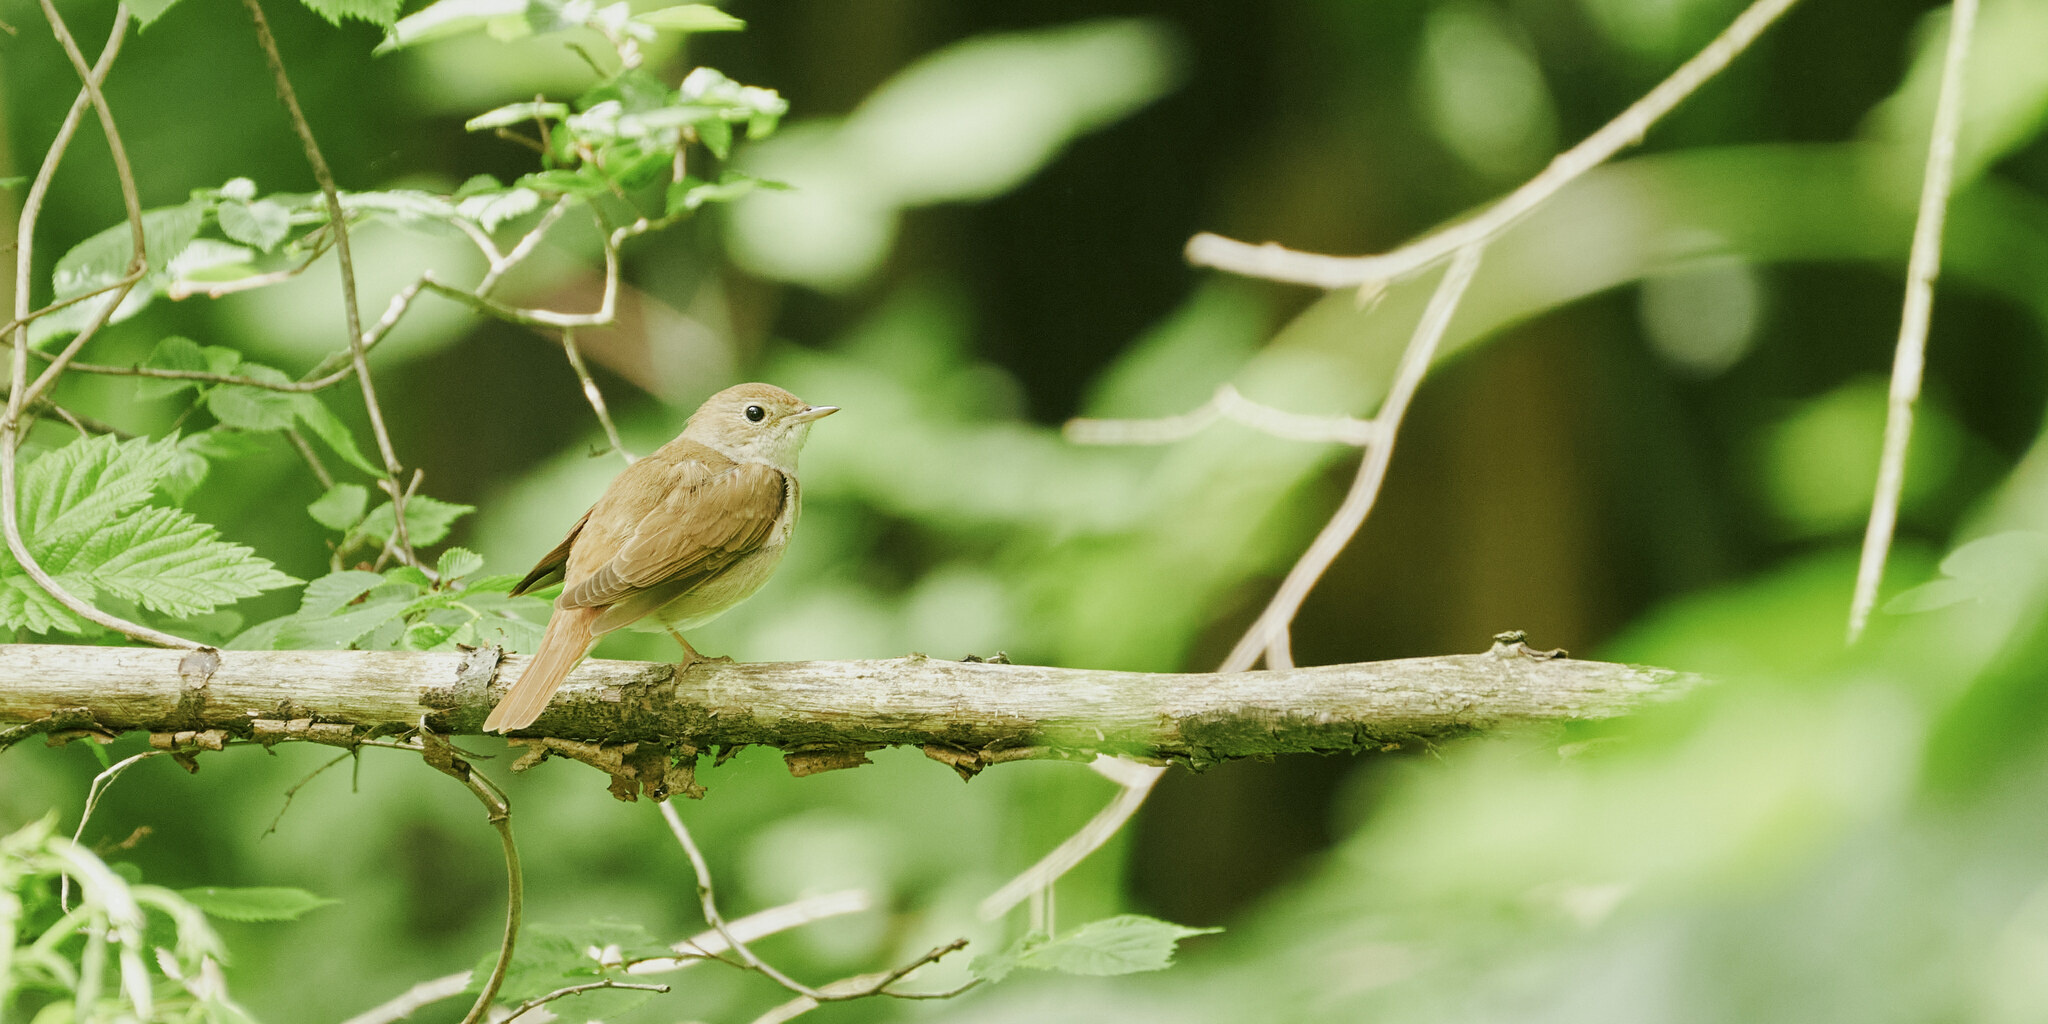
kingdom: Animalia
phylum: Chordata
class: Aves
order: Passeriformes
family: Muscicapidae
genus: Luscinia
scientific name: Luscinia megarhynchos
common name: Common nightingale
